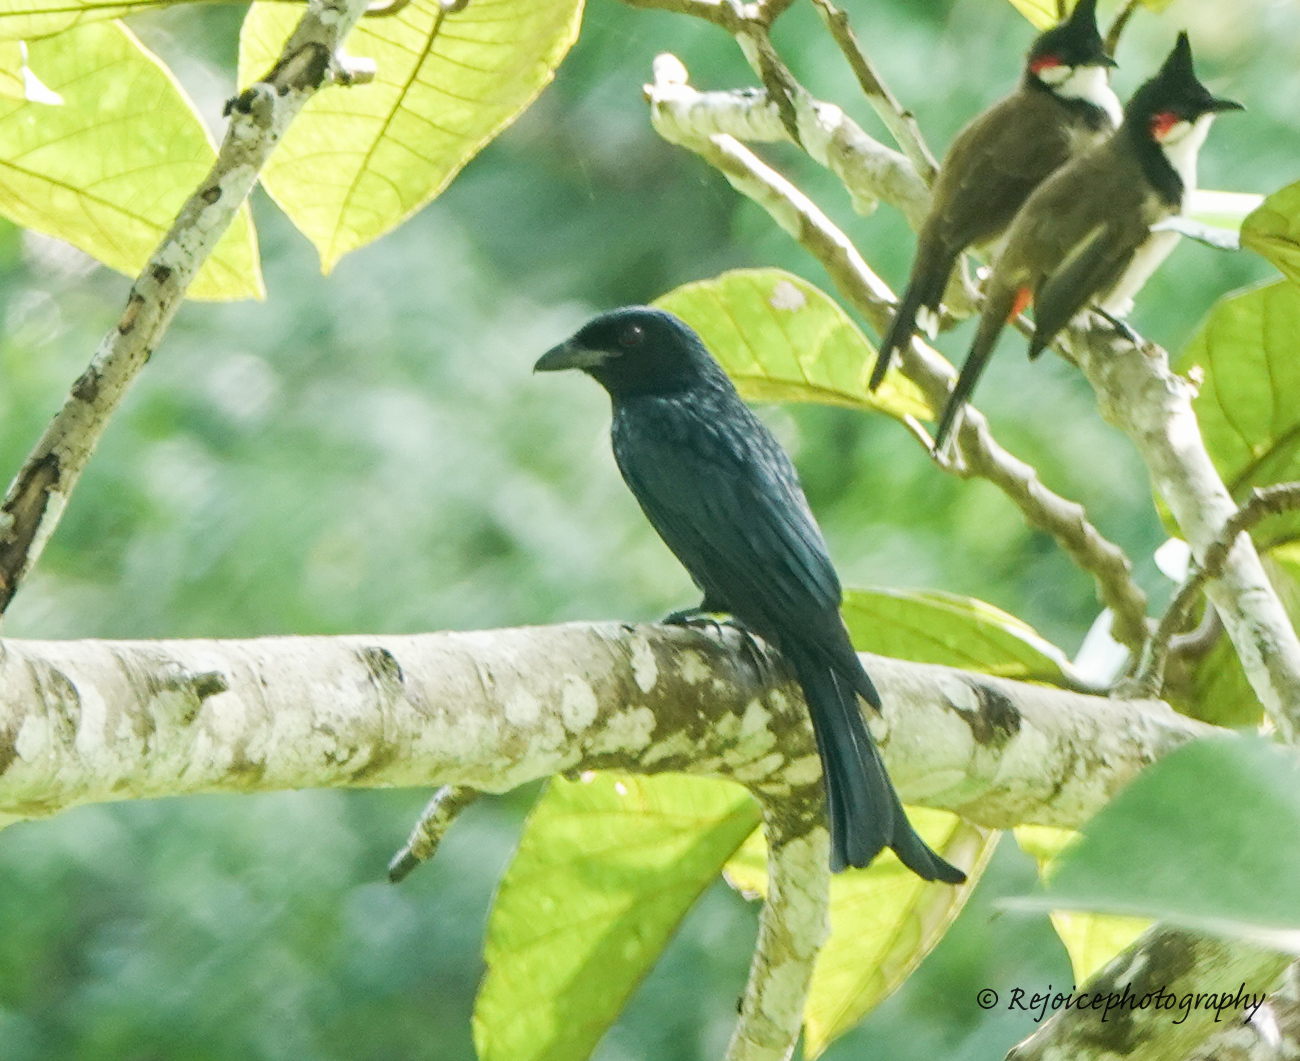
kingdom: Animalia
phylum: Chordata
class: Aves
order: Passeriformes
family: Dicruridae
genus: Dicrurus
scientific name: Dicrurus aeneus
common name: Bronzed drongo
